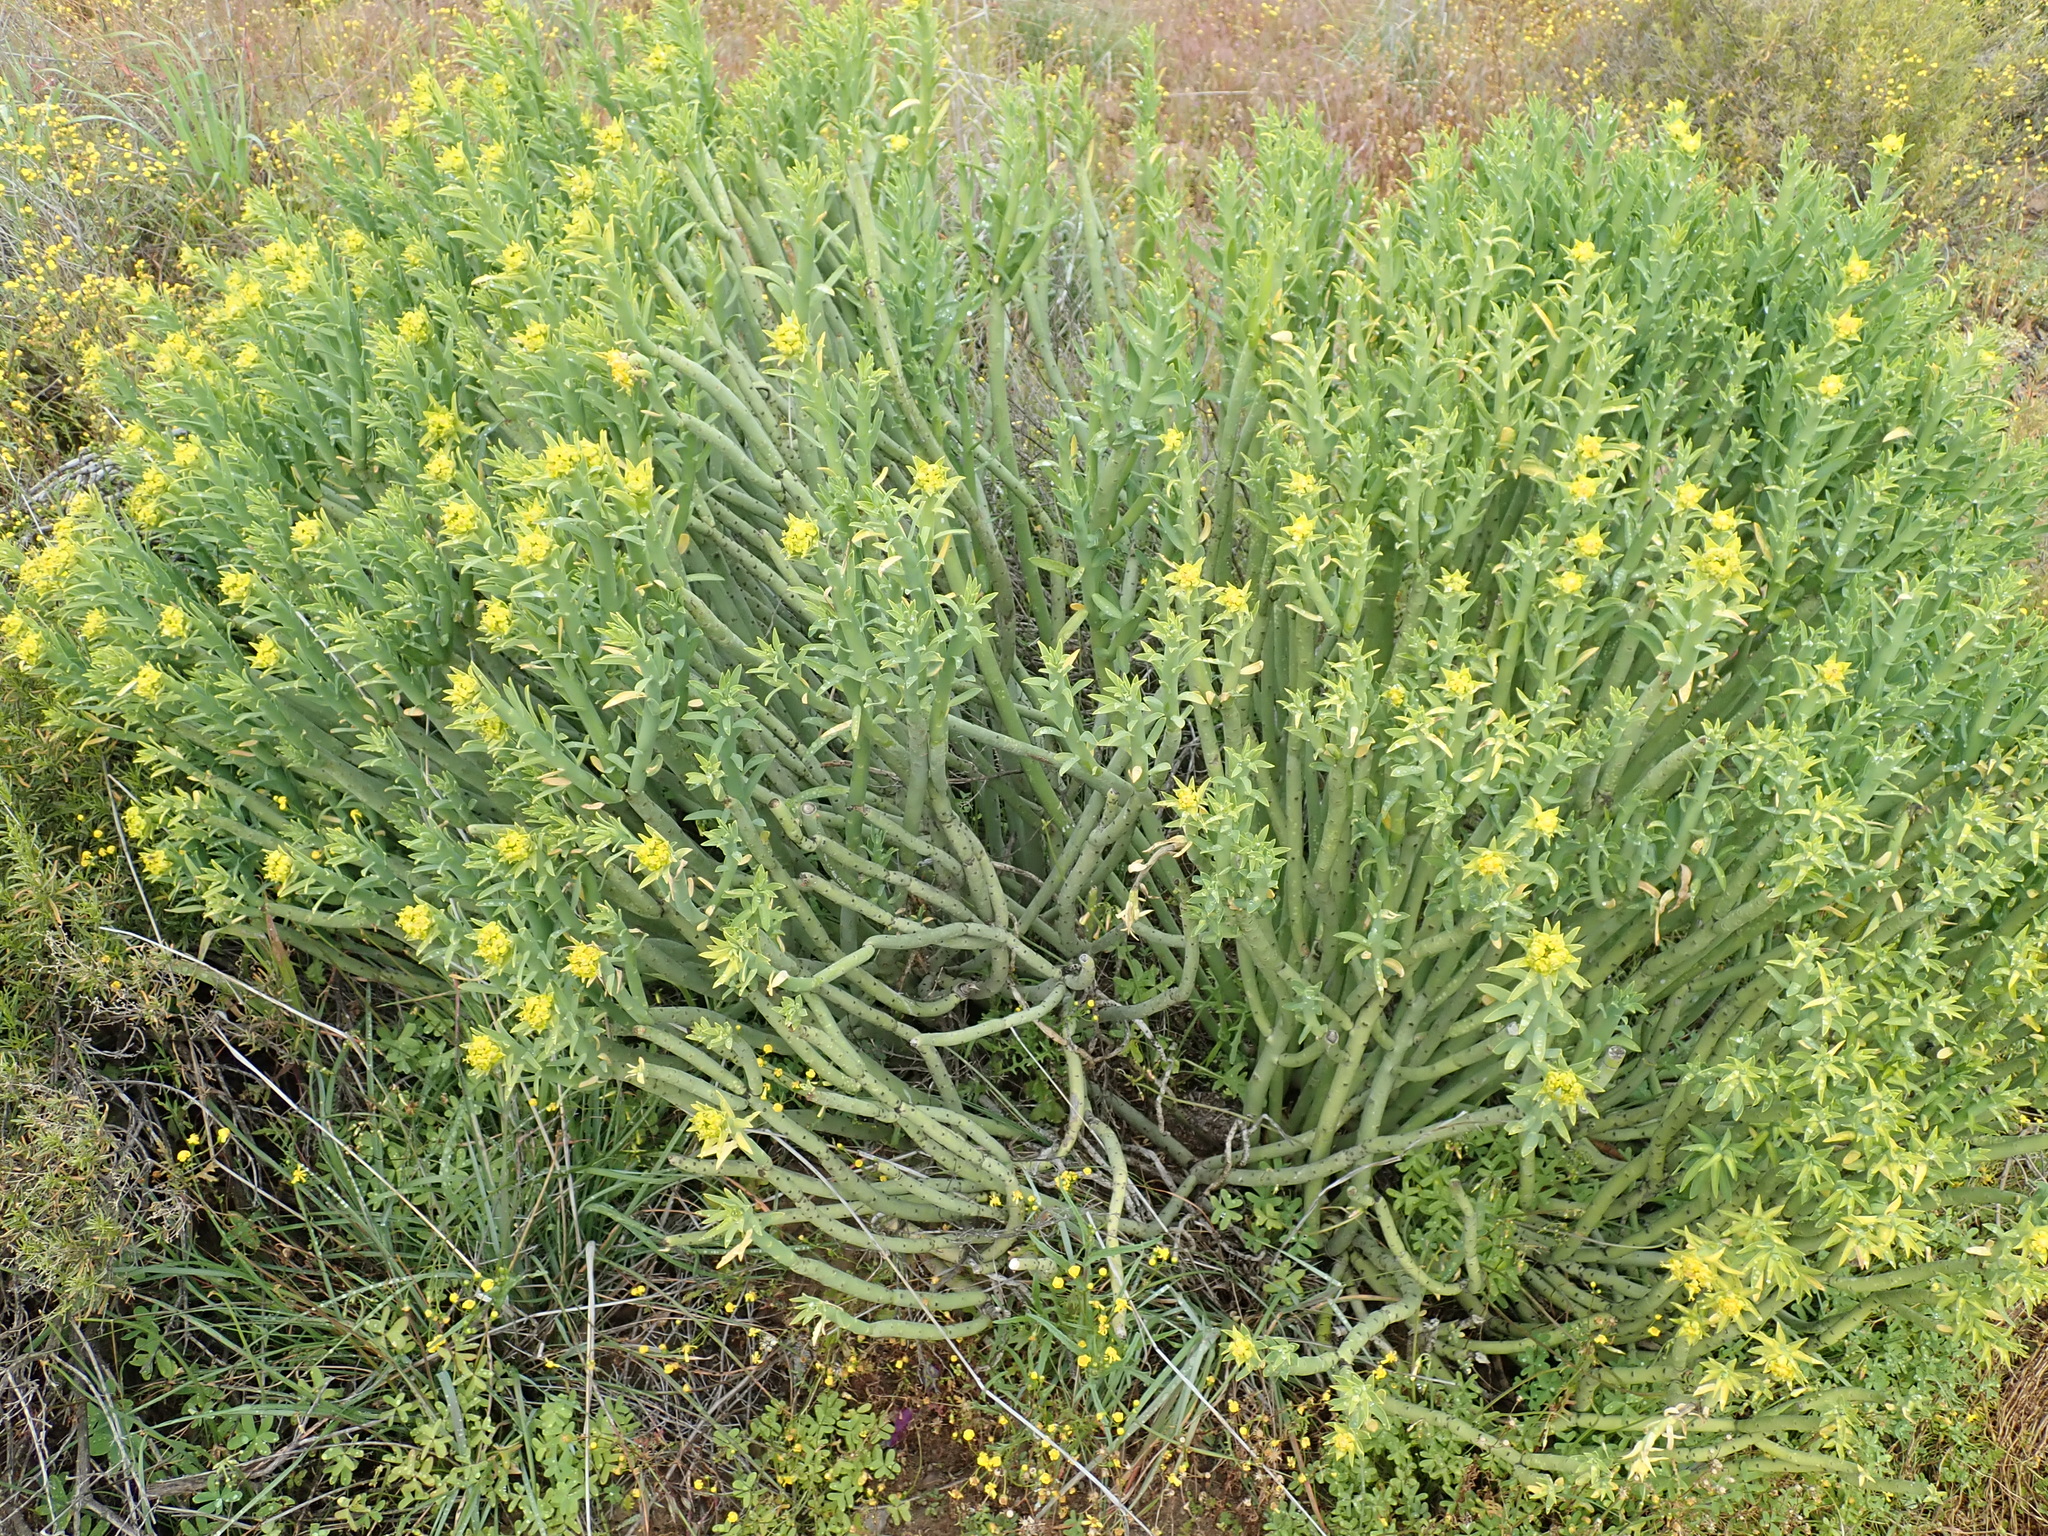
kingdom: Plantae
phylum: Tracheophyta
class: Magnoliopsida
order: Malpighiales
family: Euphorbiaceae
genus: Euphorbia
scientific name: Euphorbia mauritanica
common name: Jackal's-food
